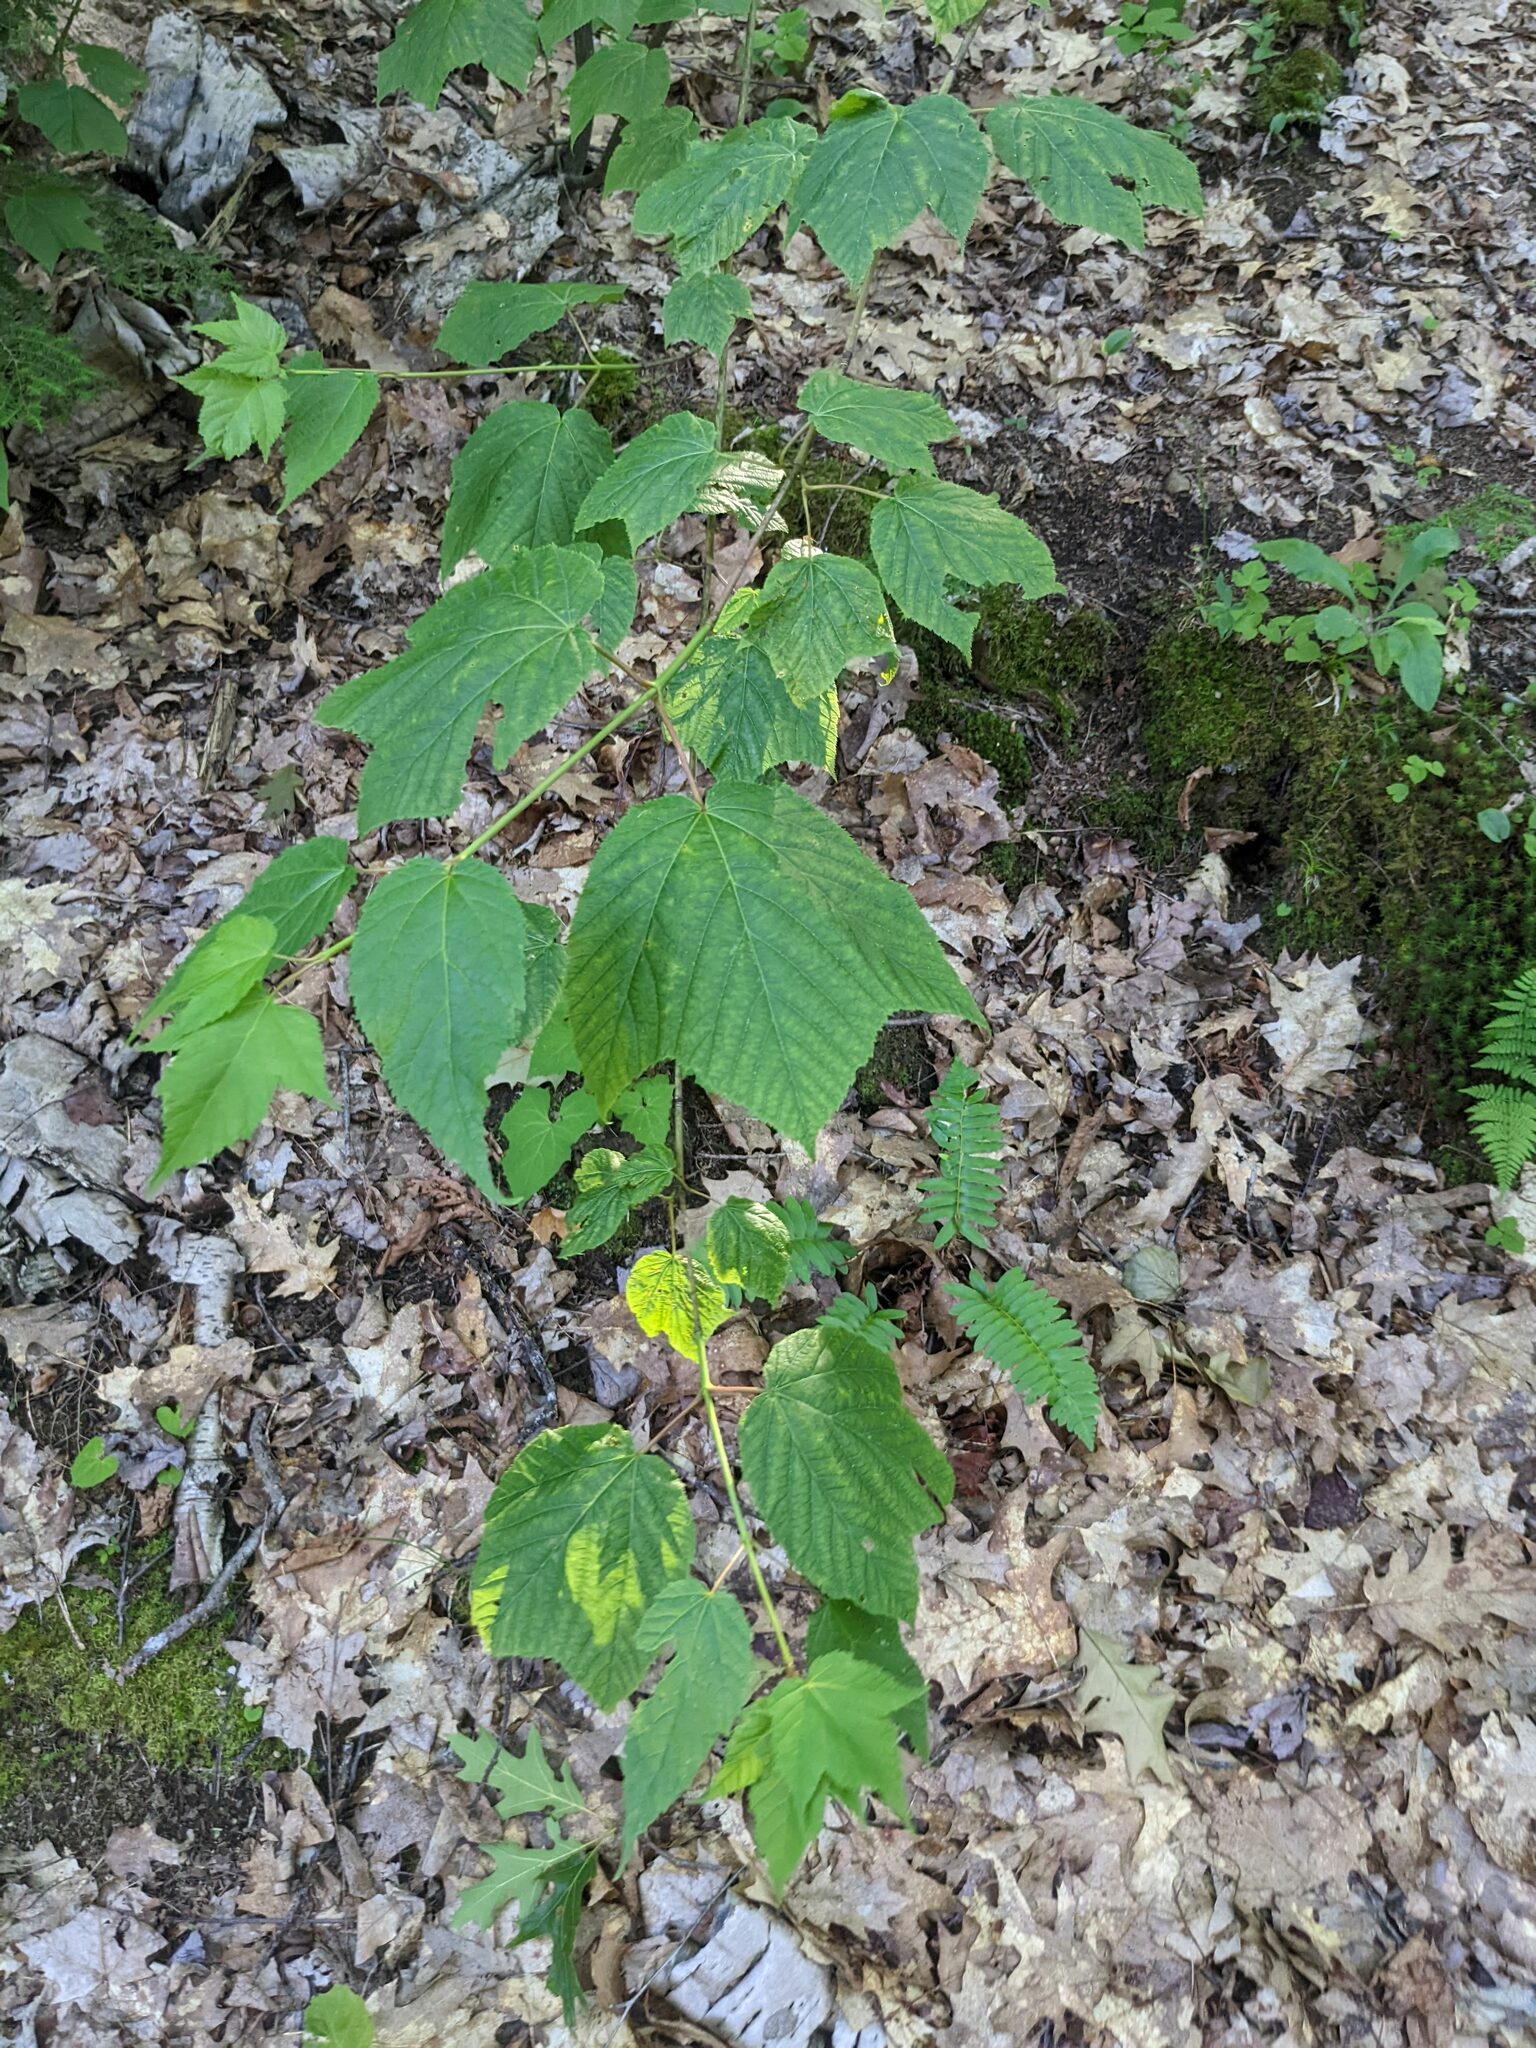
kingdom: Plantae
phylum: Tracheophyta
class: Magnoliopsida
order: Sapindales
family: Sapindaceae
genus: Acer
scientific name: Acer pensylvanicum
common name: Moosewood
